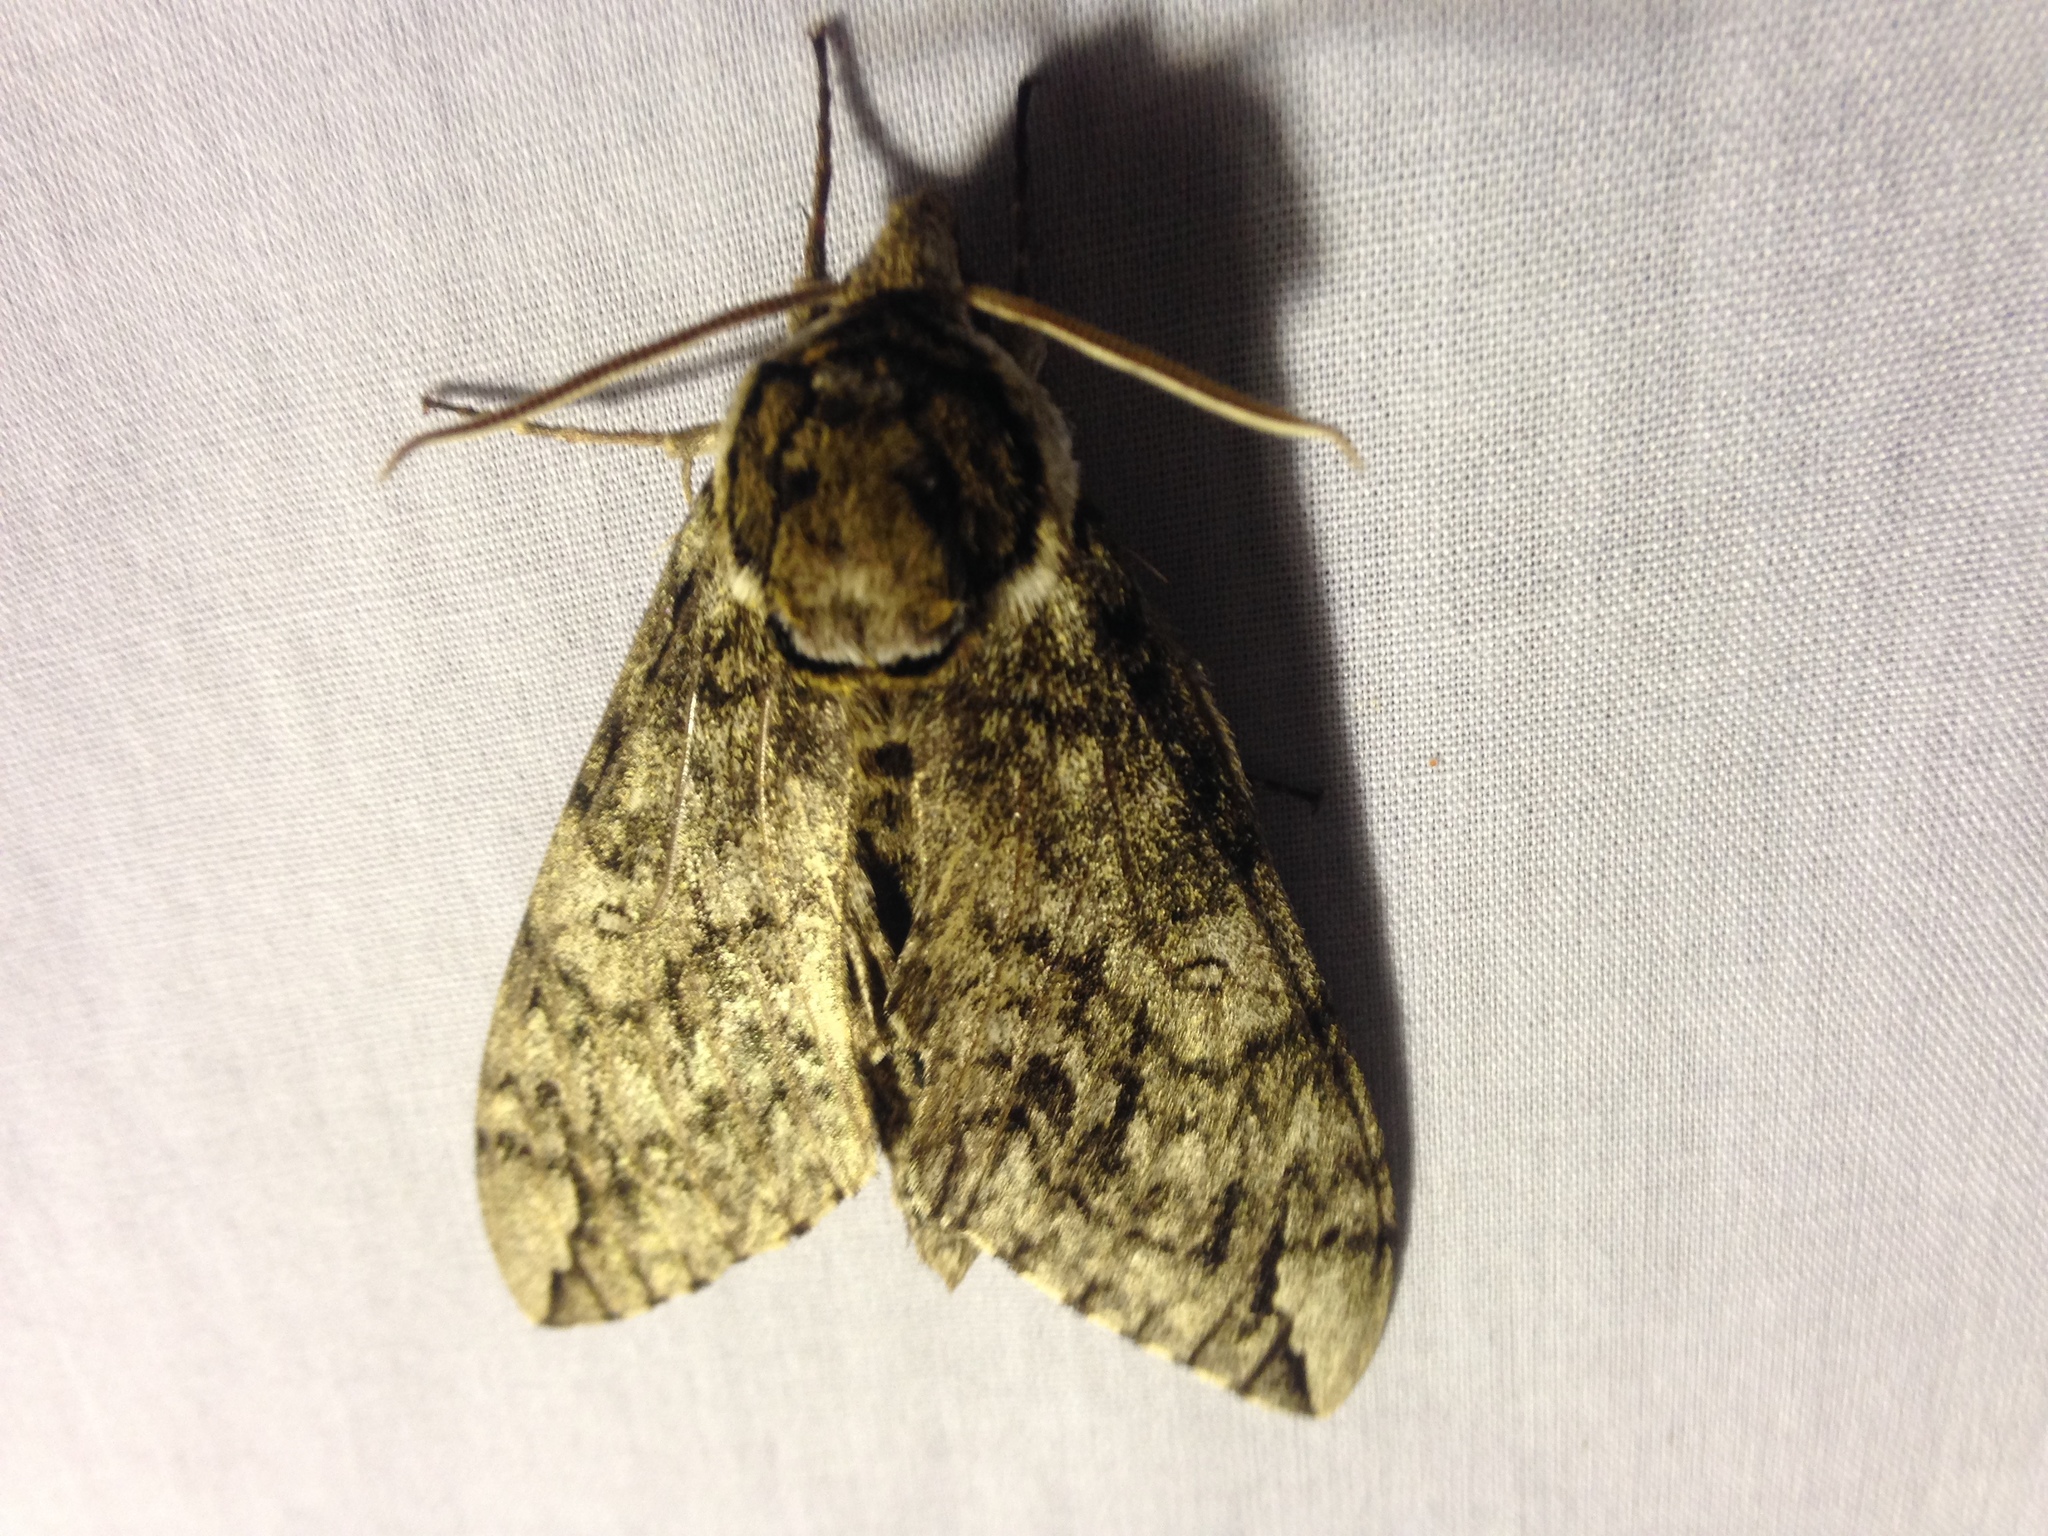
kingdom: Animalia
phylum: Arthropoda
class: Insecta
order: Lepidoptera
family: Sphingidae
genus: Ceratomia
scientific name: Ceratomia undulosa
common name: Waved sphinx
